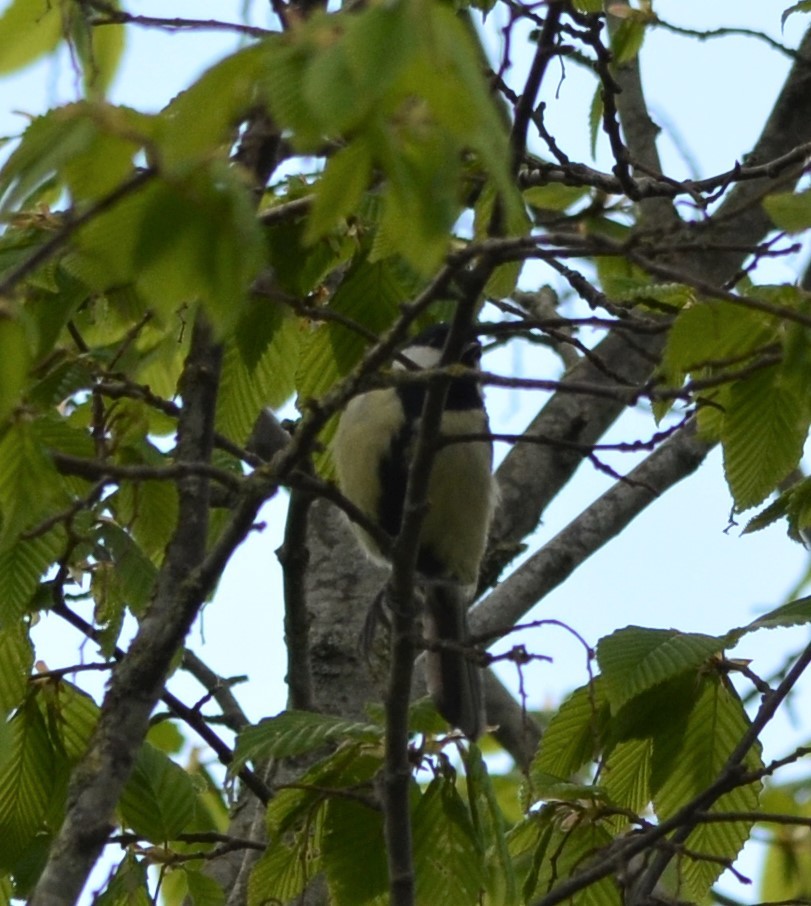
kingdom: Animalia
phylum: Chordata
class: Aves
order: Passeriformes
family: Paridae
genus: Parus
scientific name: Parus major
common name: Great tit
